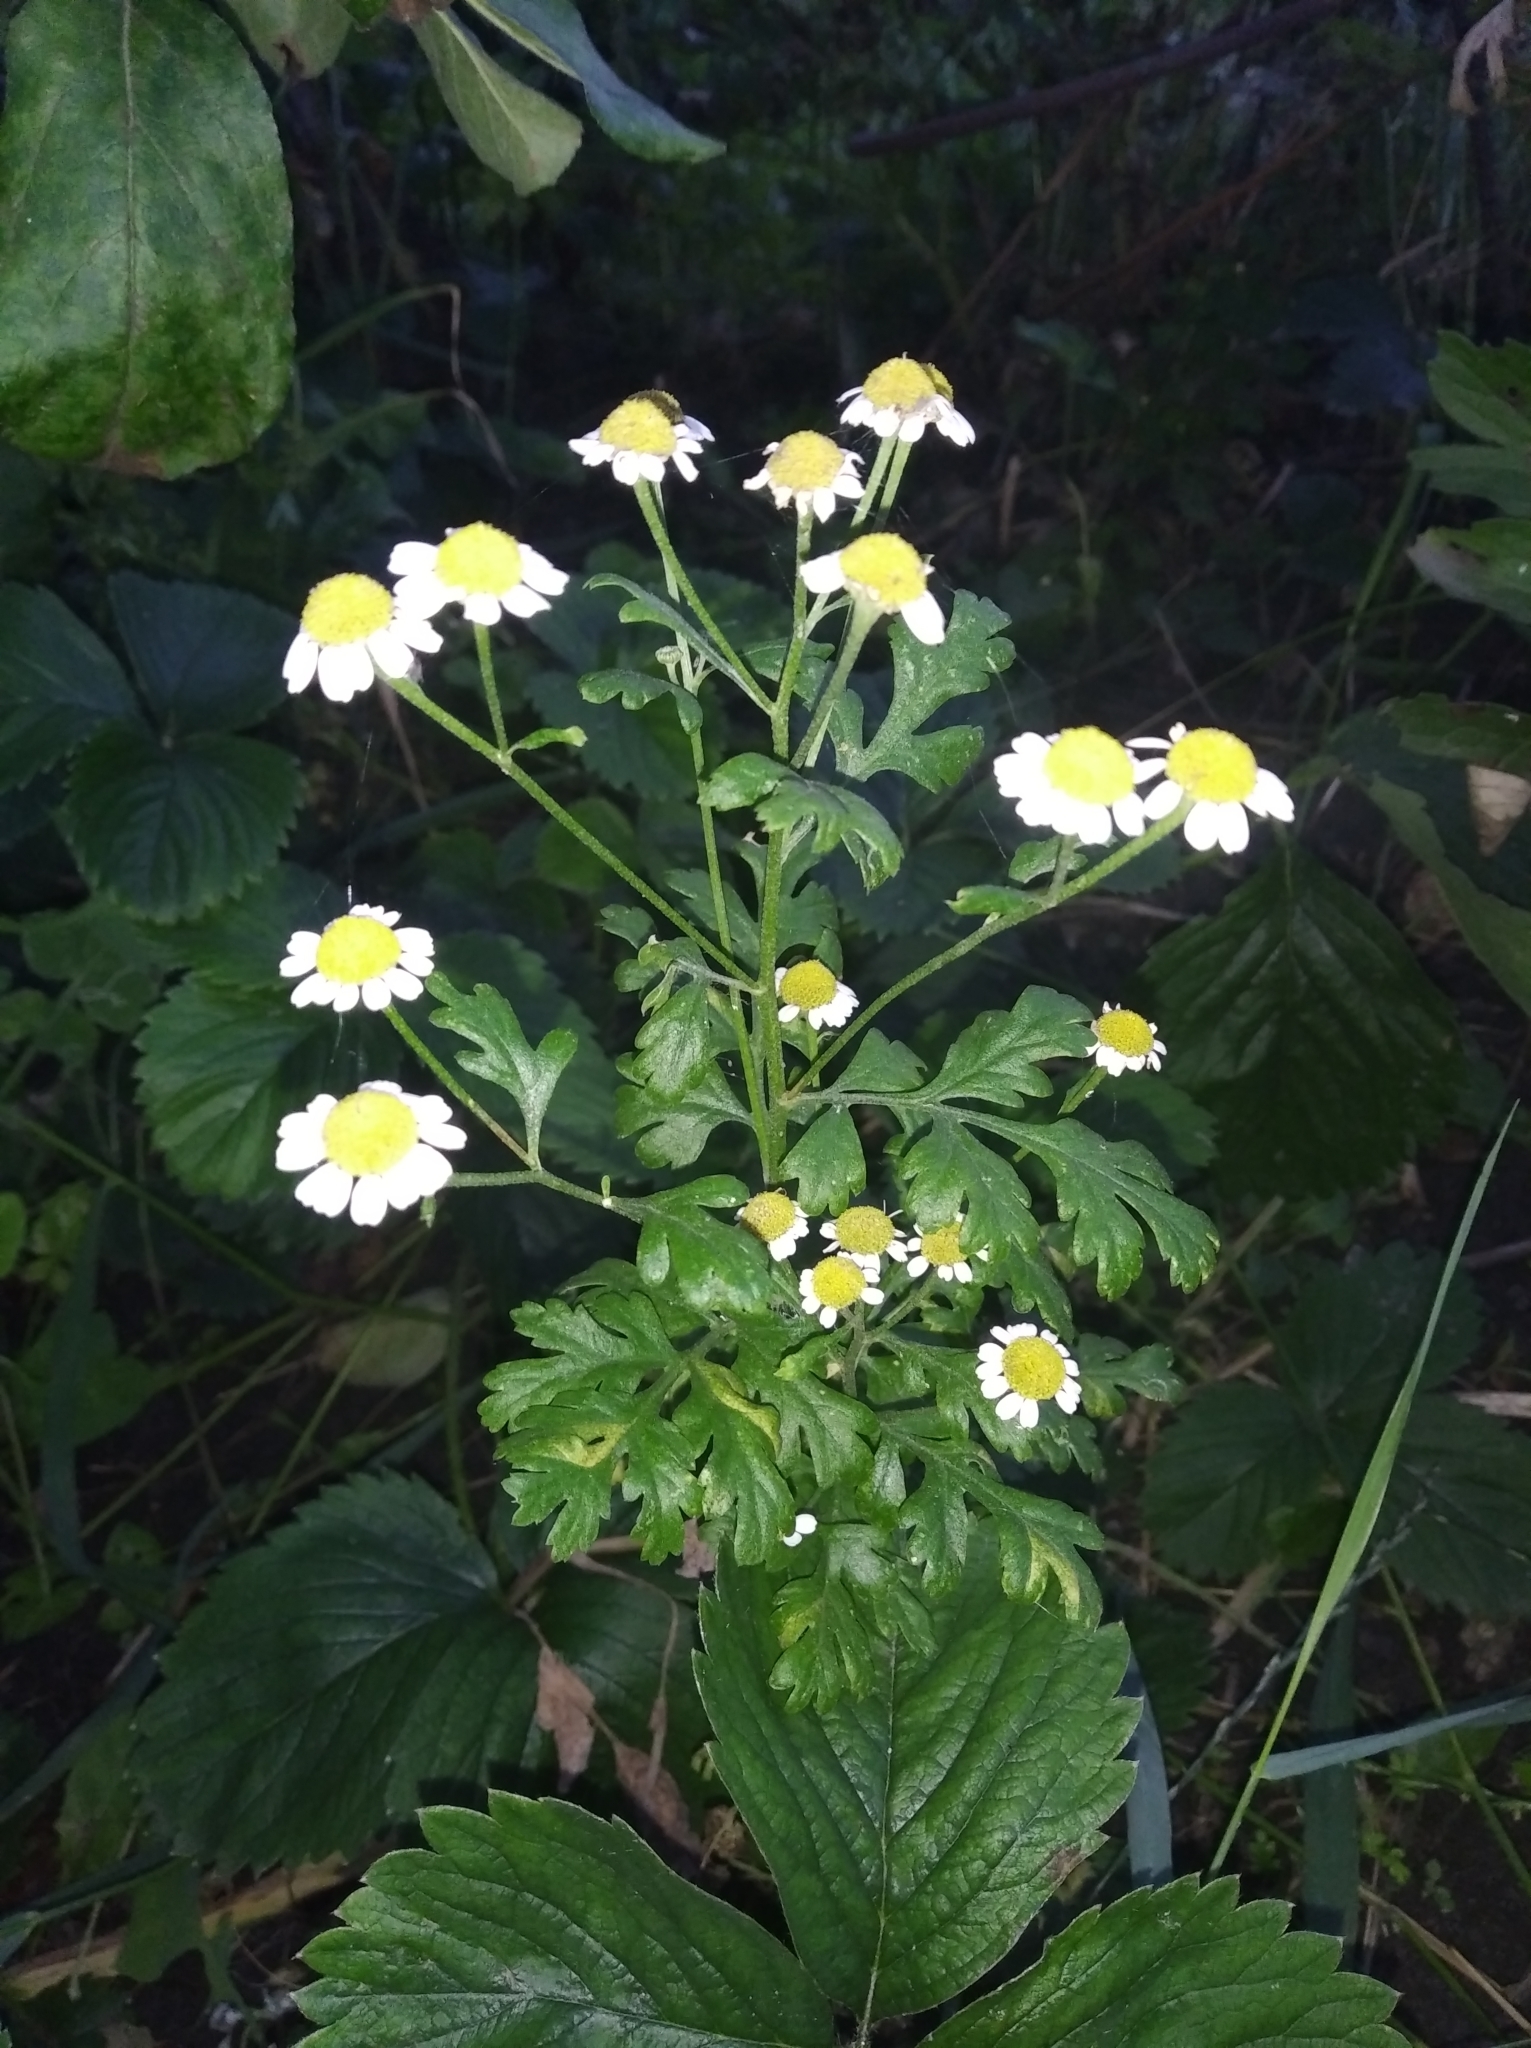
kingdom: Plantae
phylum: Tracheophyta
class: Magnoliopsida
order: Asterales
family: Asteraceae
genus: Tanacetum
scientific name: Tanacetum parthenium
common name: Feverfew
